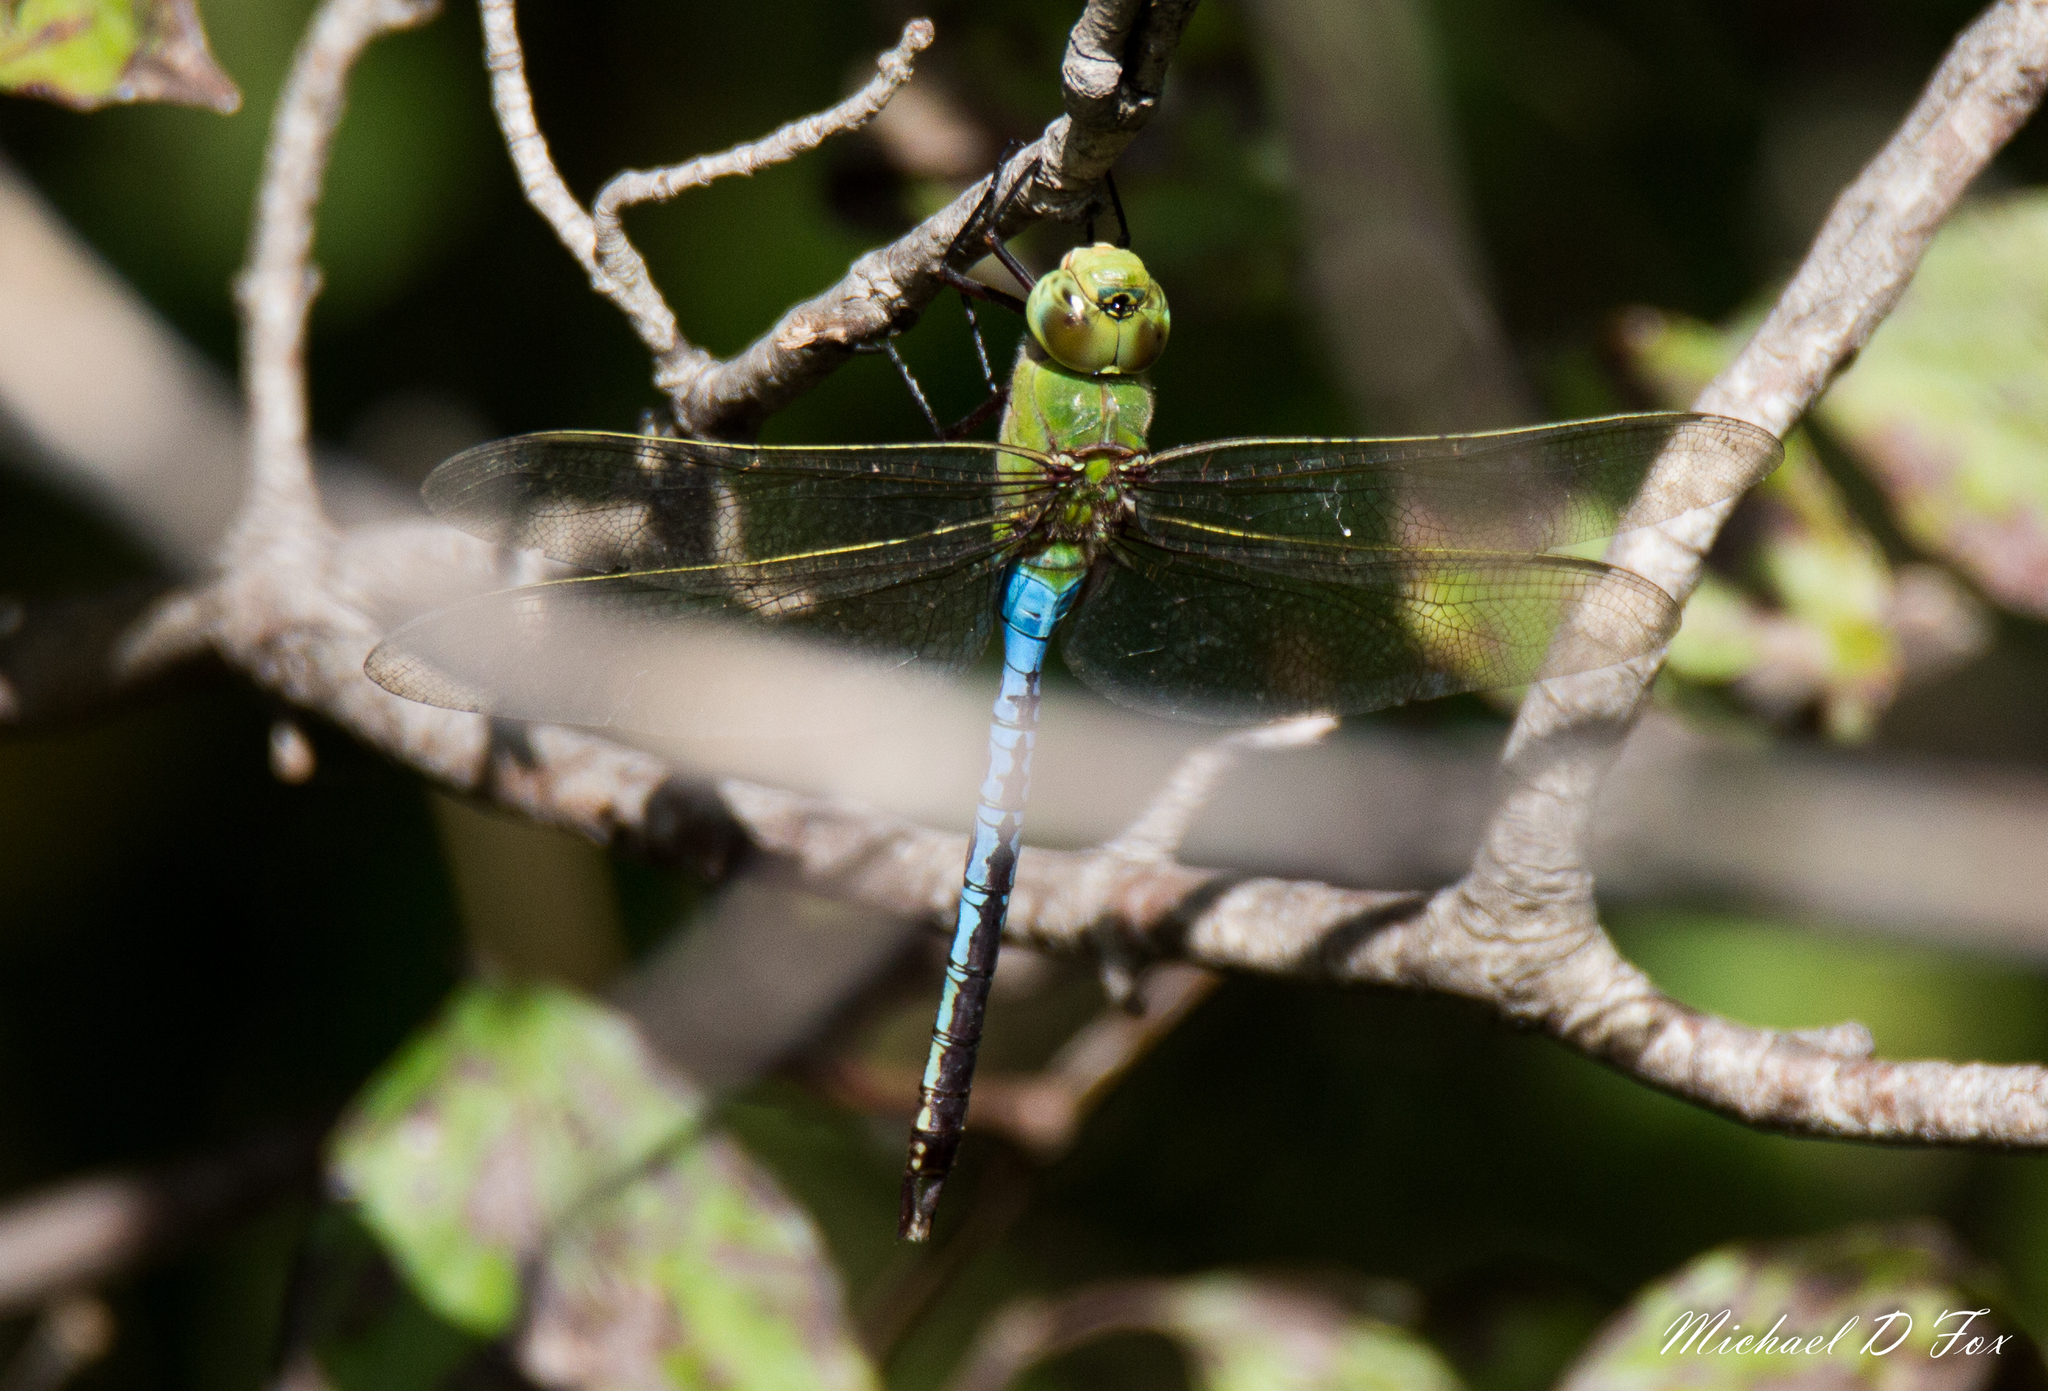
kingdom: Animalia
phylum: Arthropoda
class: Insecta
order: Odonata
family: Aeshnidae
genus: Anax
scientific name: Anax junius
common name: Common green darner
